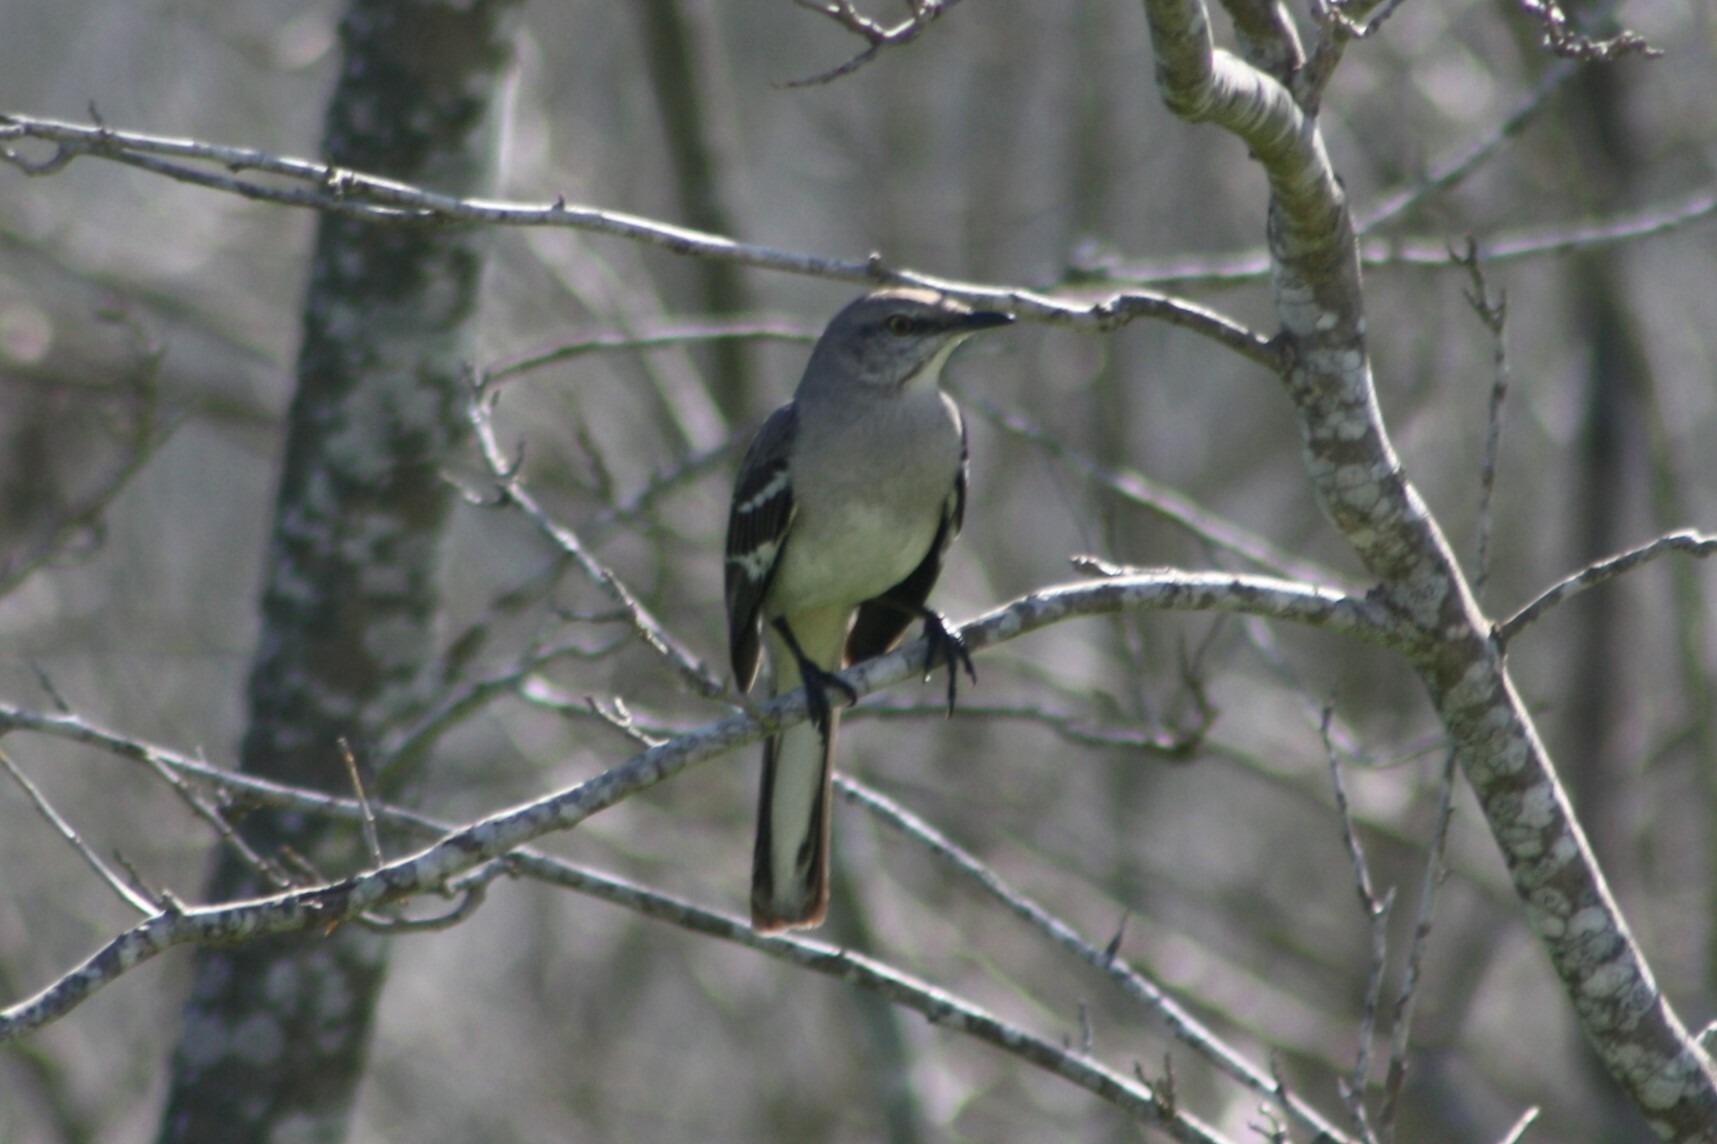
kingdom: Animalia
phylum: Chordata
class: Aves
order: Passeriformes
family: Mimidae
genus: Mimus
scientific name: Mimus polyglottos
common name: Northern mockingbird
